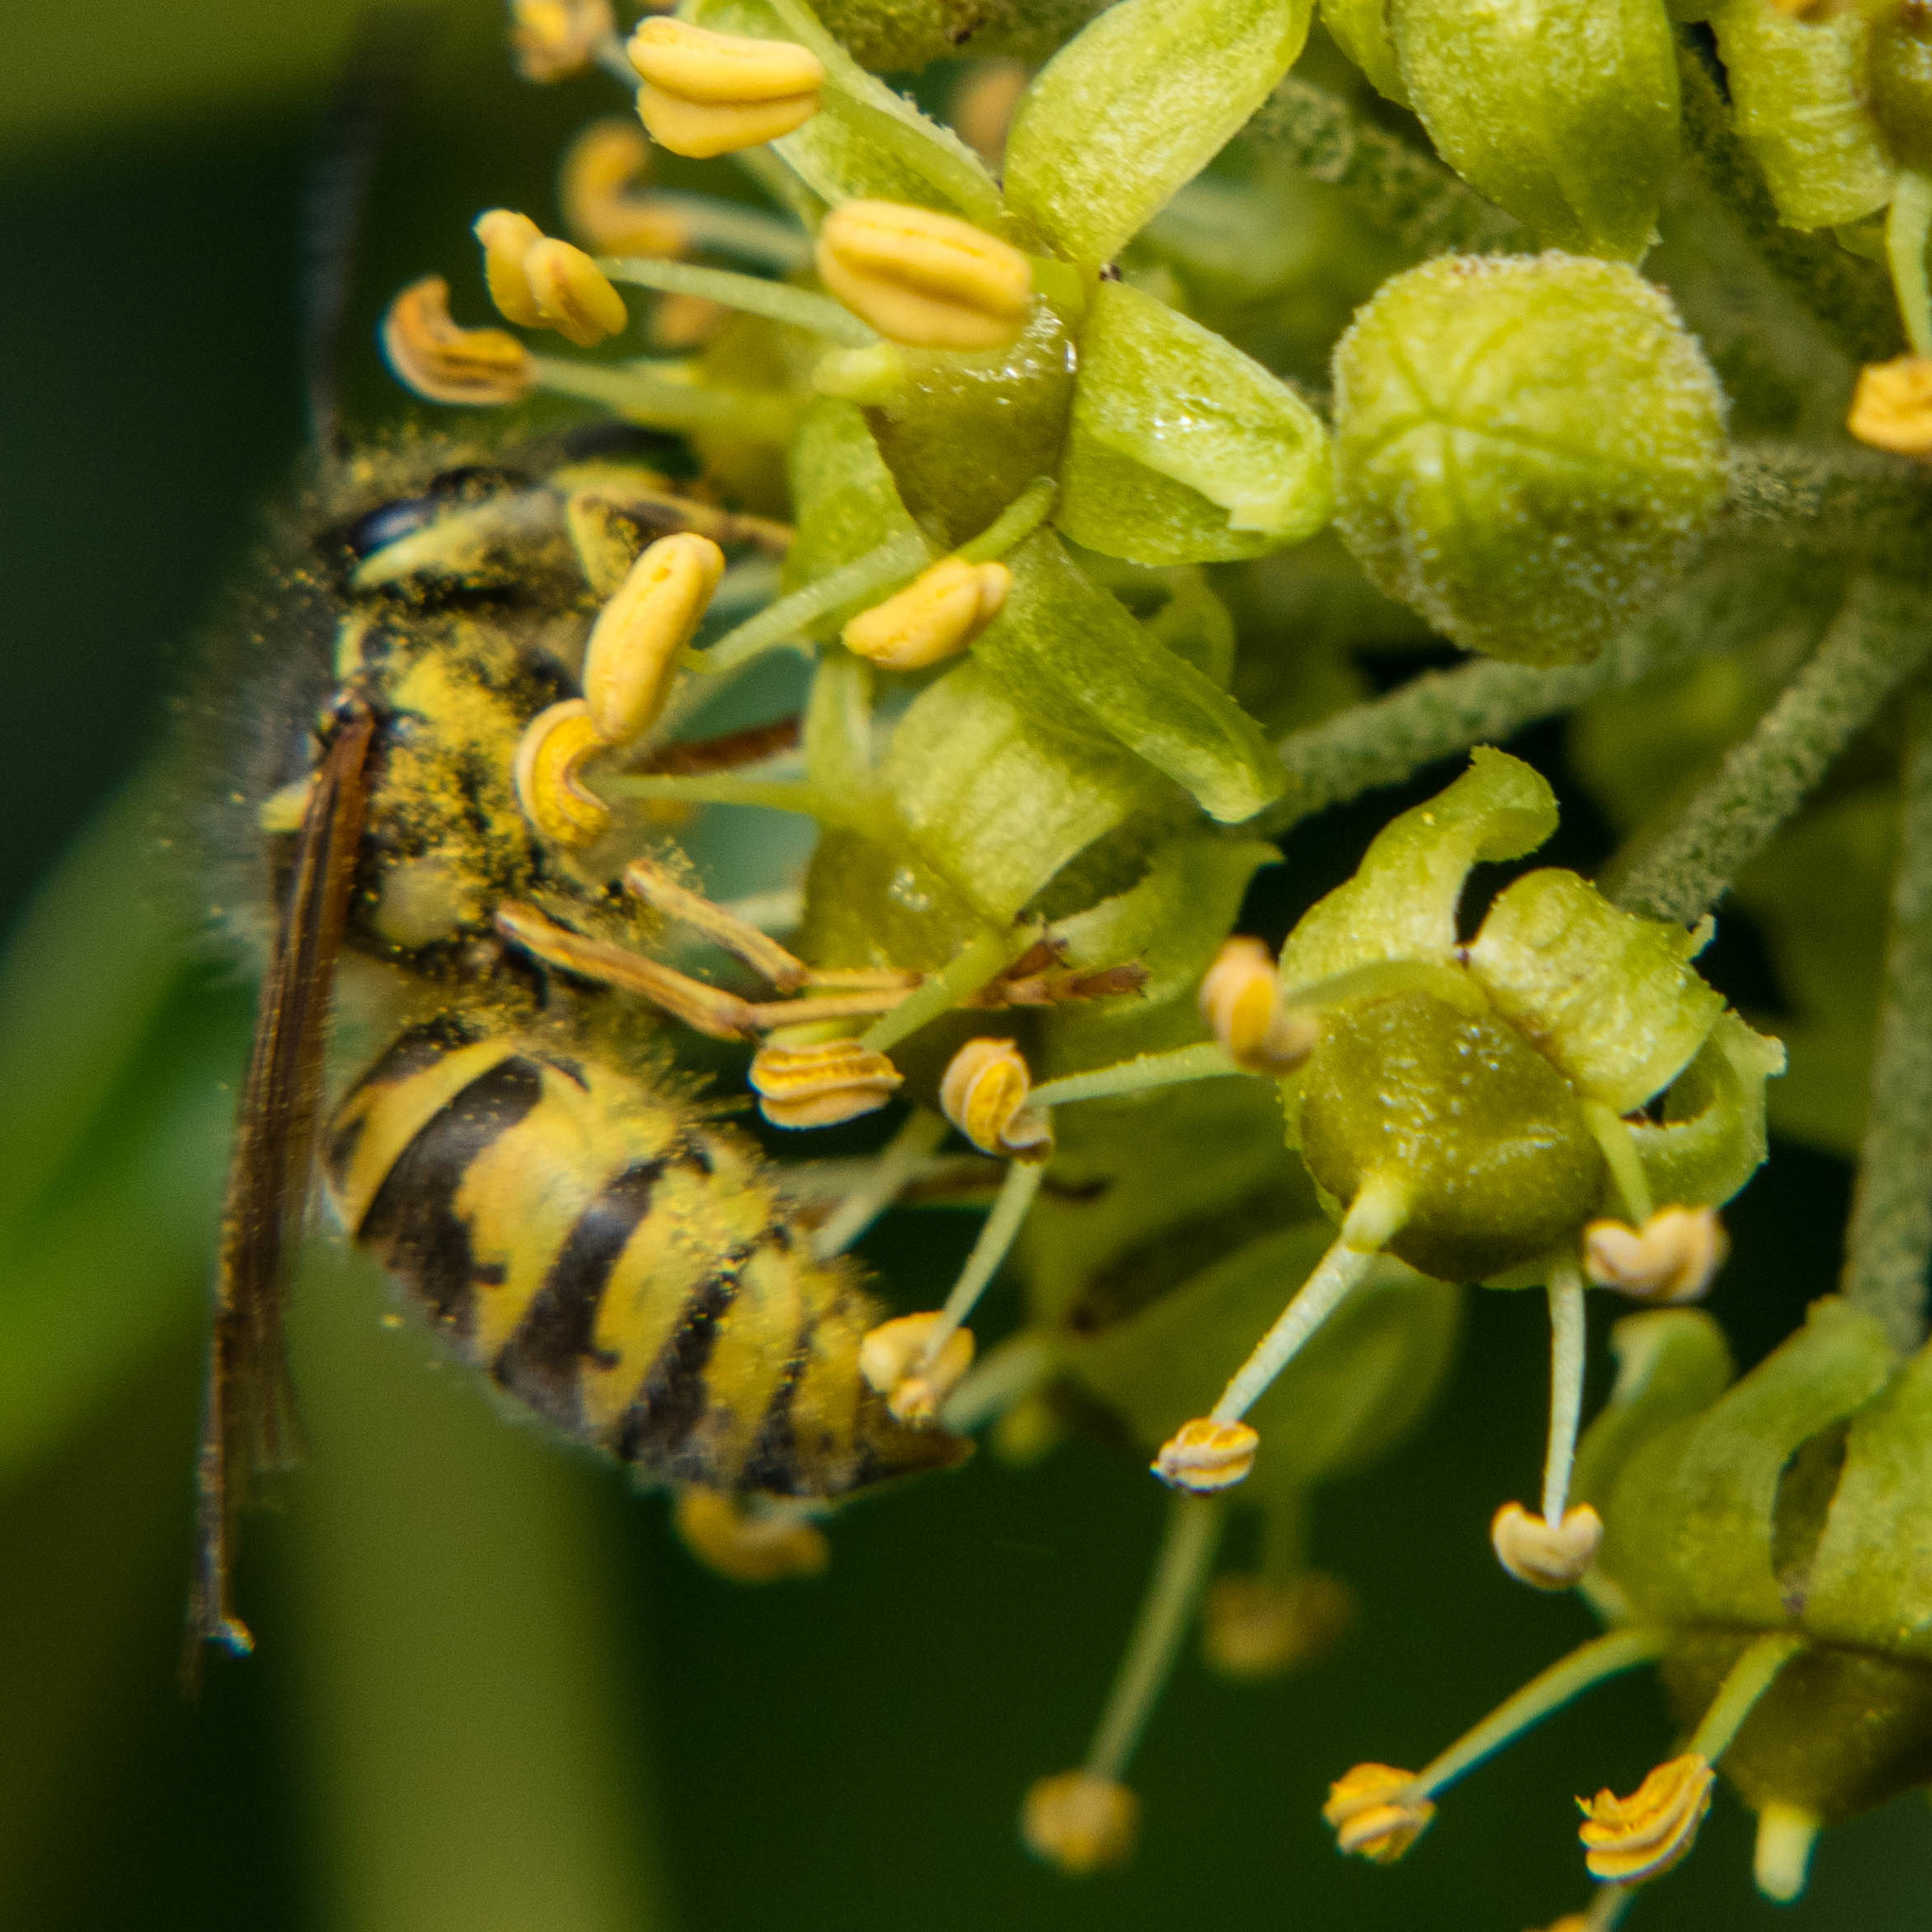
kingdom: Animalia
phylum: Arthropoda
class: Insecta
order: Hymenoptera
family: Vespidae
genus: Vespula
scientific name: Vespula vulgaris
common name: Common wasp
